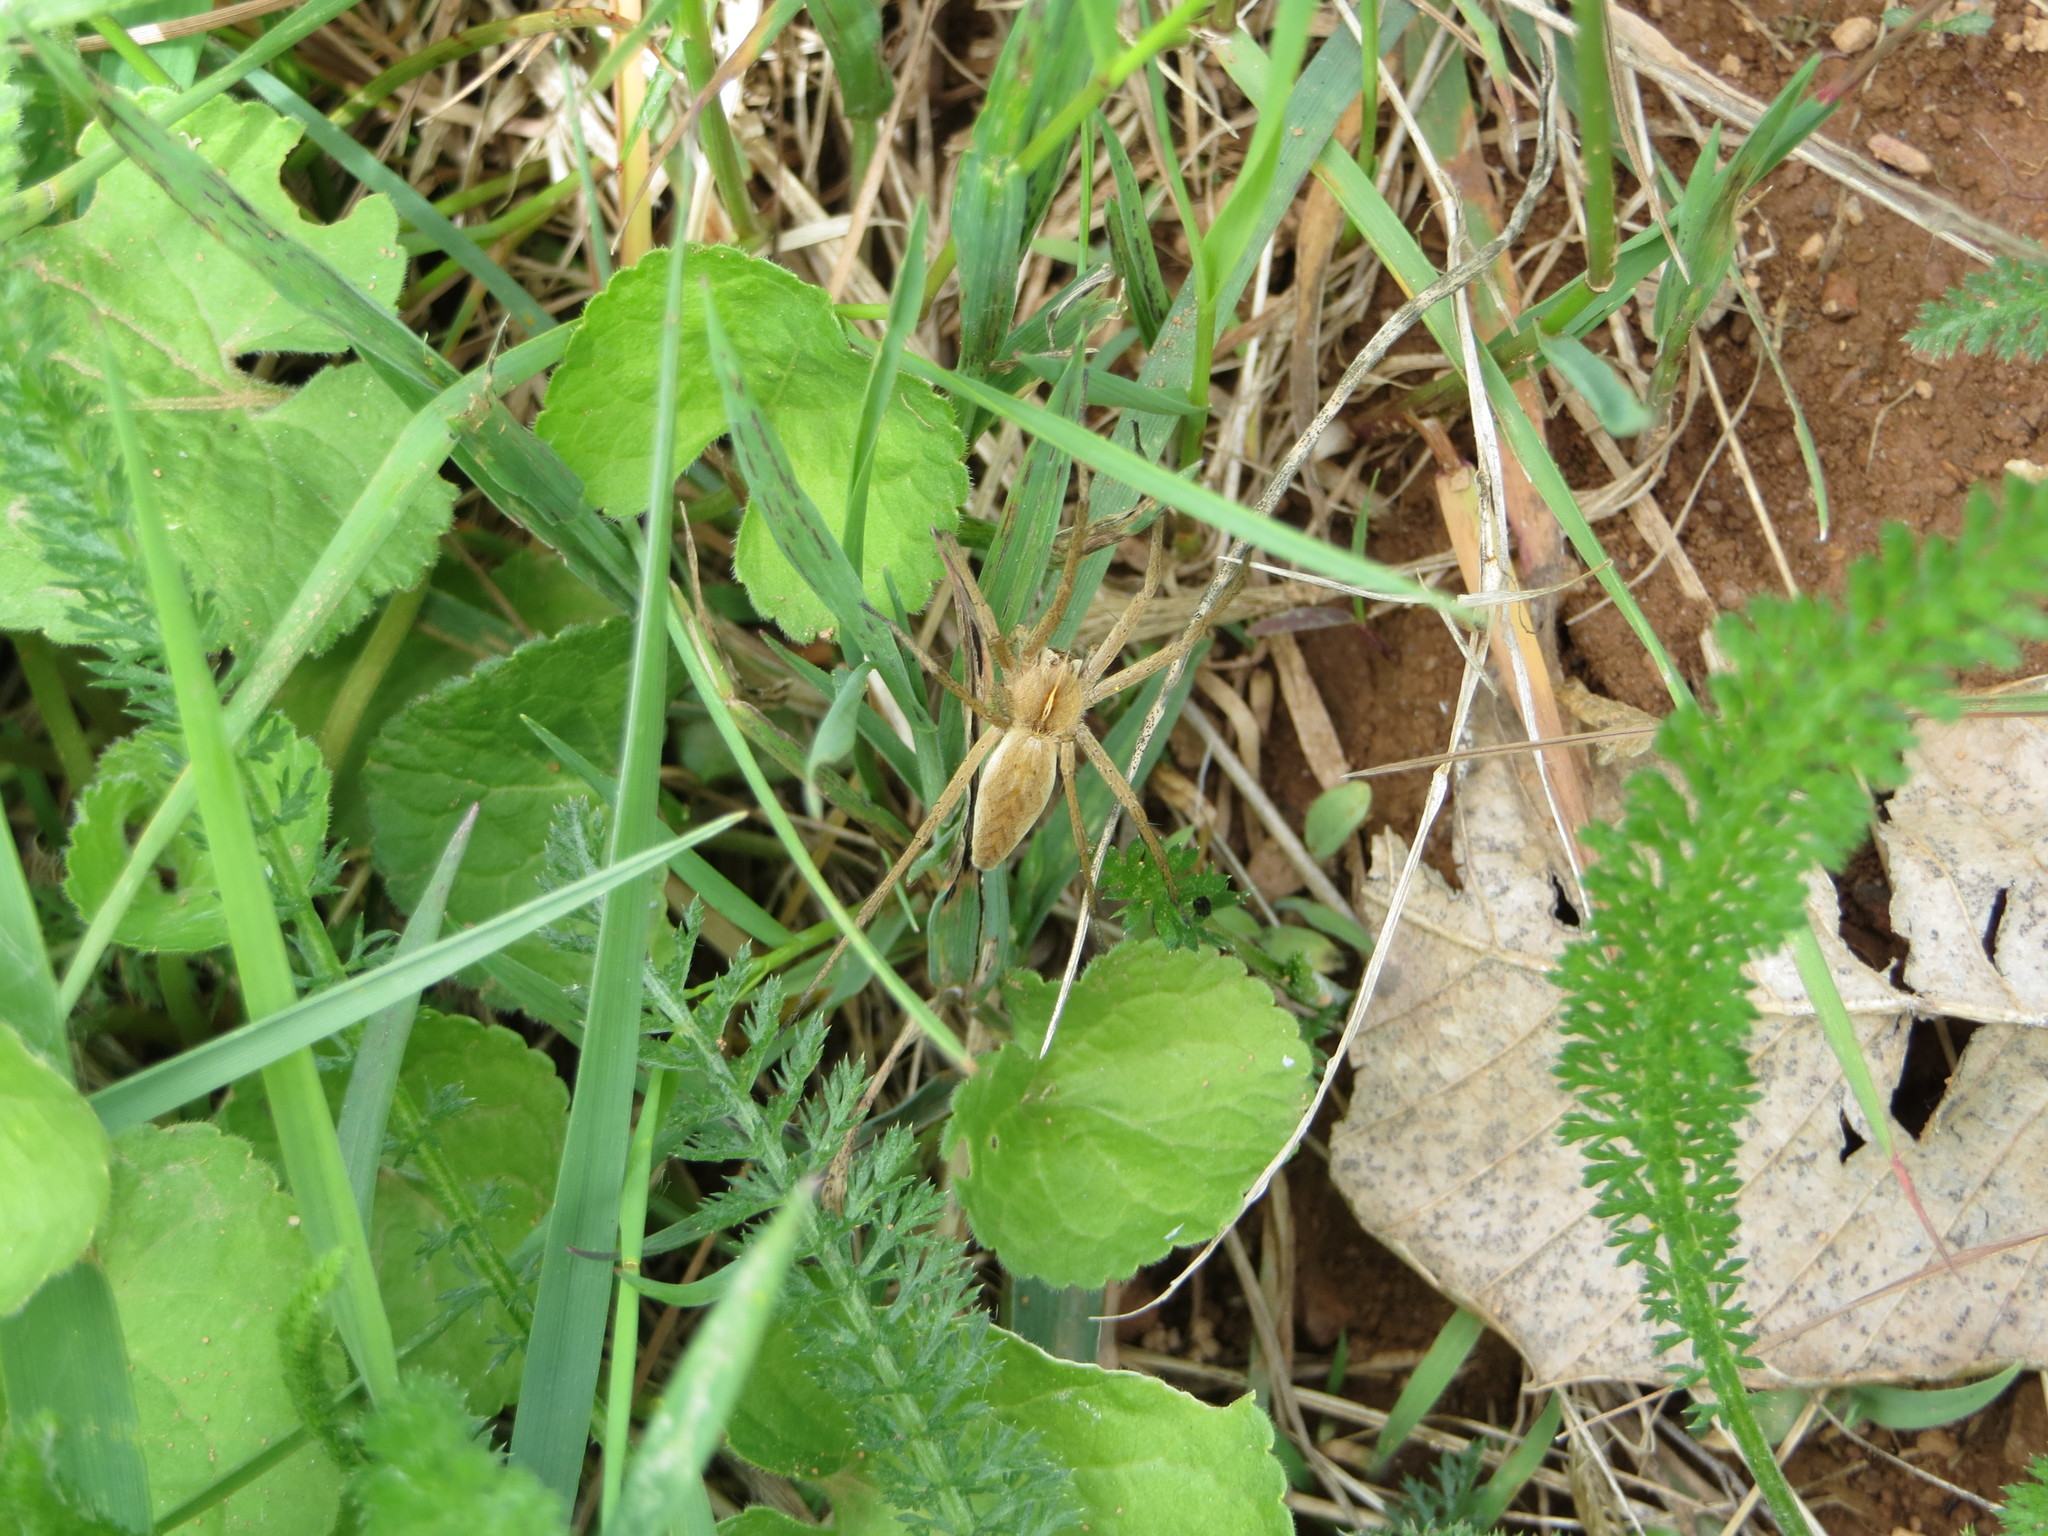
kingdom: Animalia
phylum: Arthropoda
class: Arachnida
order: Araneae
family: Pisauridae
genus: Pisaura
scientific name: Pisaura mirabilis
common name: Tent spider
